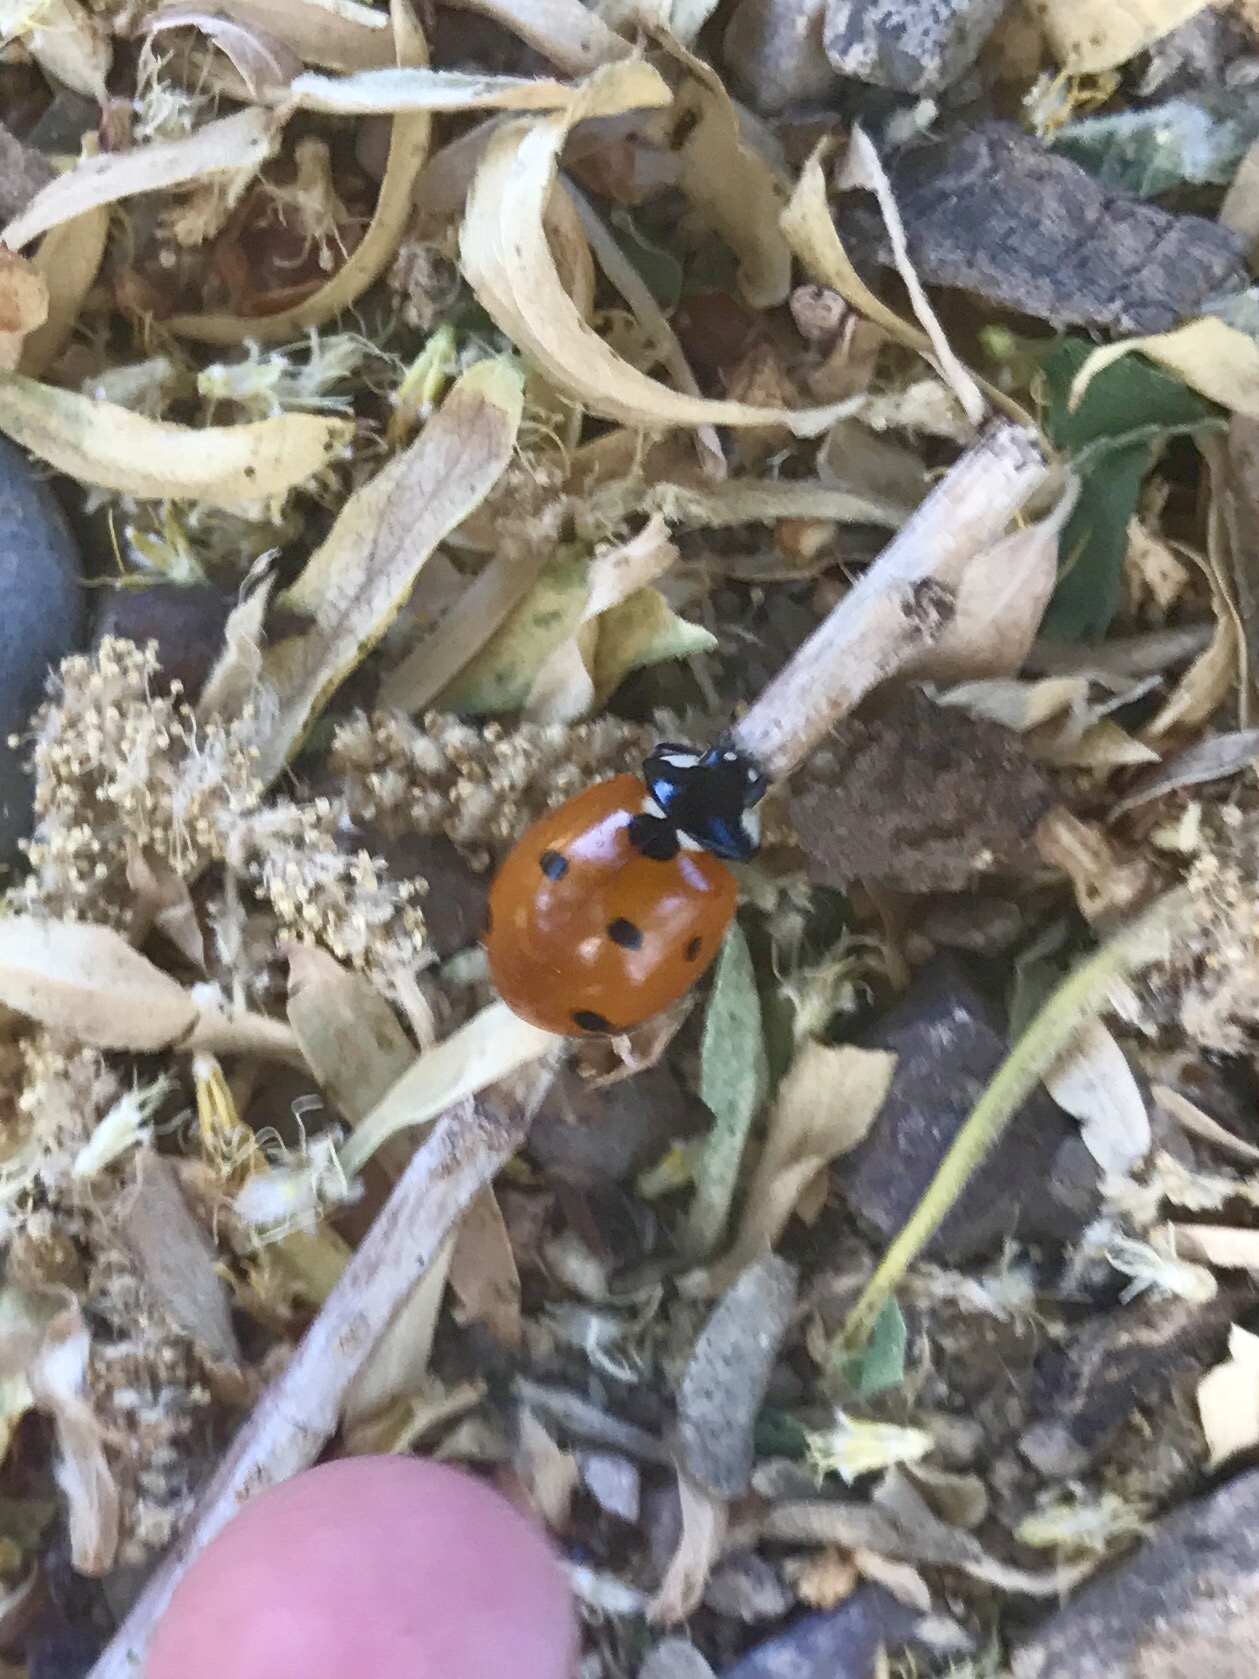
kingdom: Animalia
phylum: Arthropoda
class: Insecta
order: Coleoptera
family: Coccinellidae
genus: Coccinella
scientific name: Coccinella septempunctata
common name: Sevenspotted lady beetle
